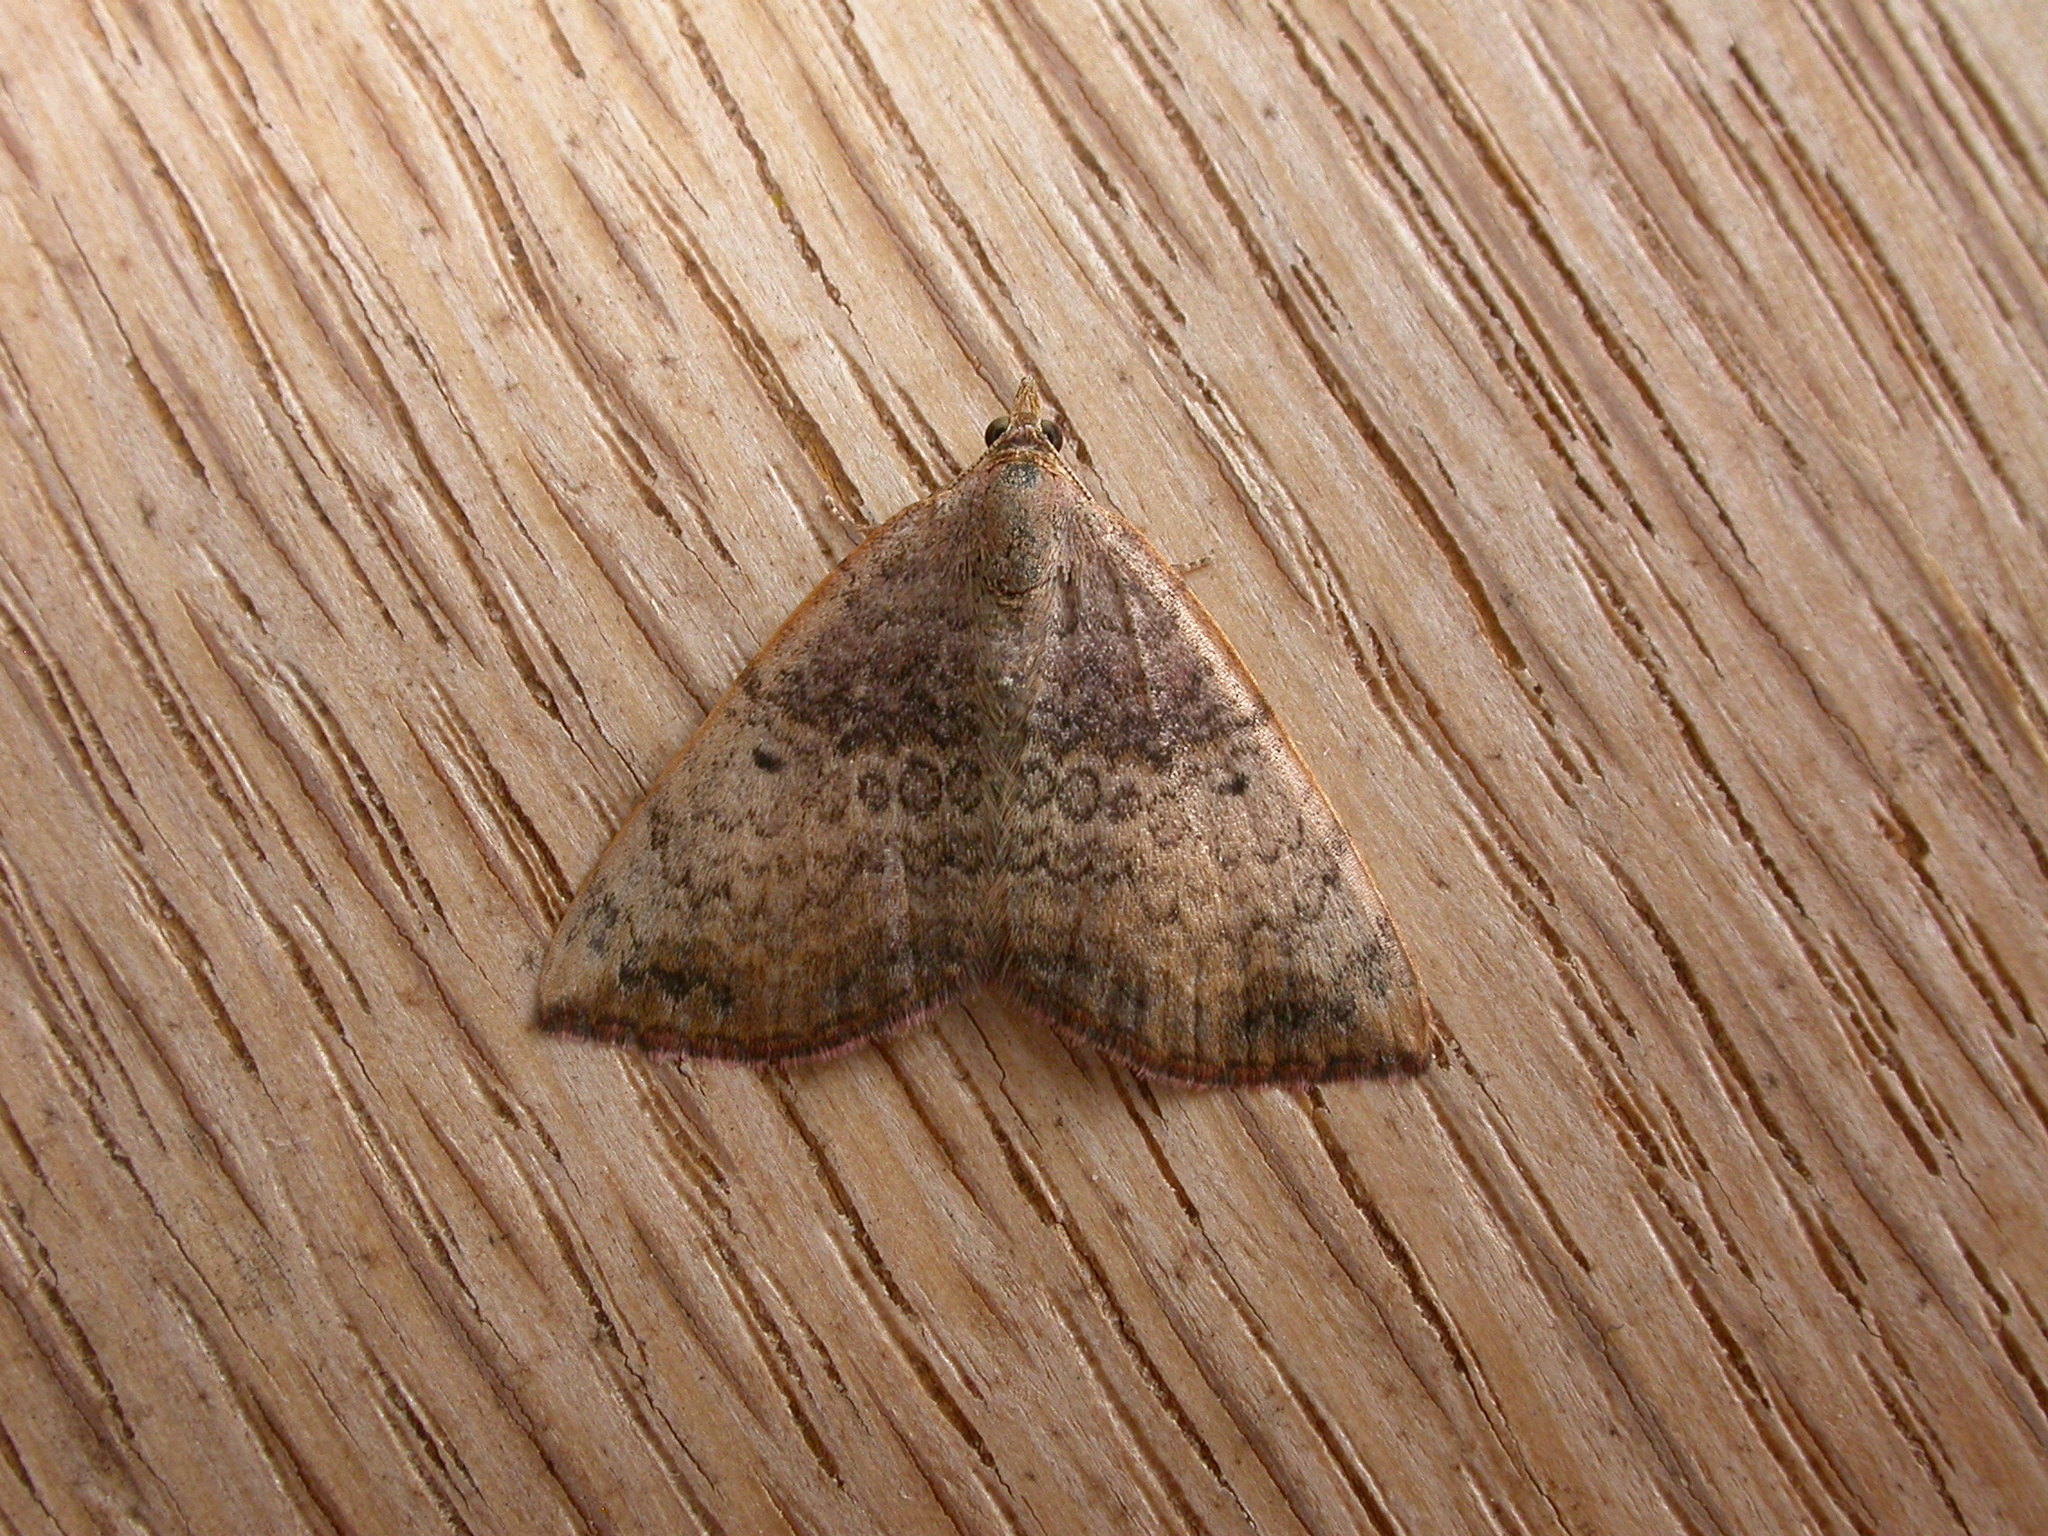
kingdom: Animalia
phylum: Arthropoda
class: Insecta
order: Lepidoptera
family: Geometridae
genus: Chrysolarentia
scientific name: Chrysolarentia mecynata
